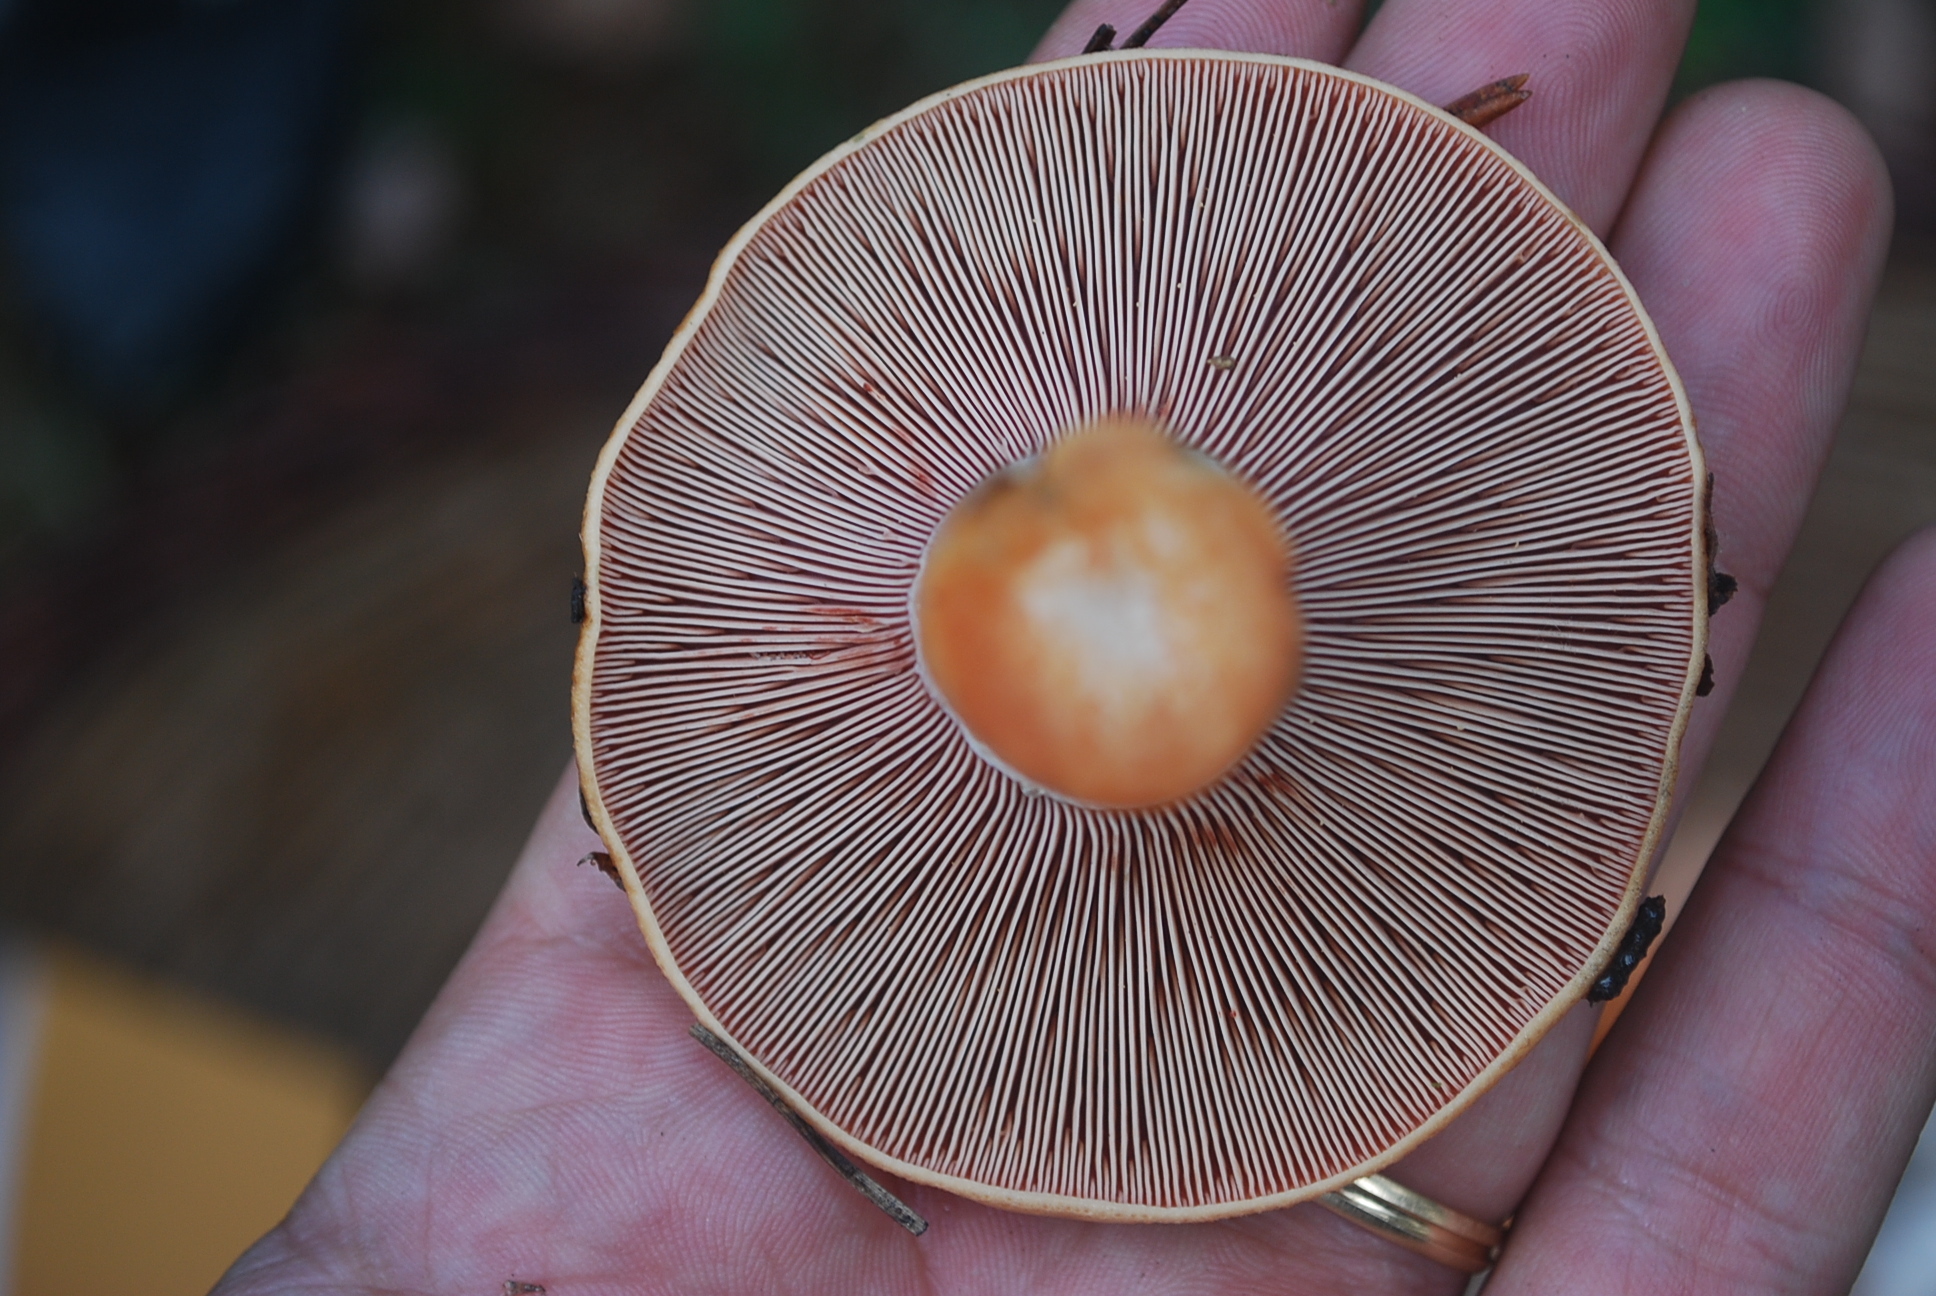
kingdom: Fungi
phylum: Basidiomycota
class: Agaricomycetes
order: Russulales
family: Russulaceae
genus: Lactarius
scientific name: Lactarius sanguifluus
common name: Bloody milkcap
